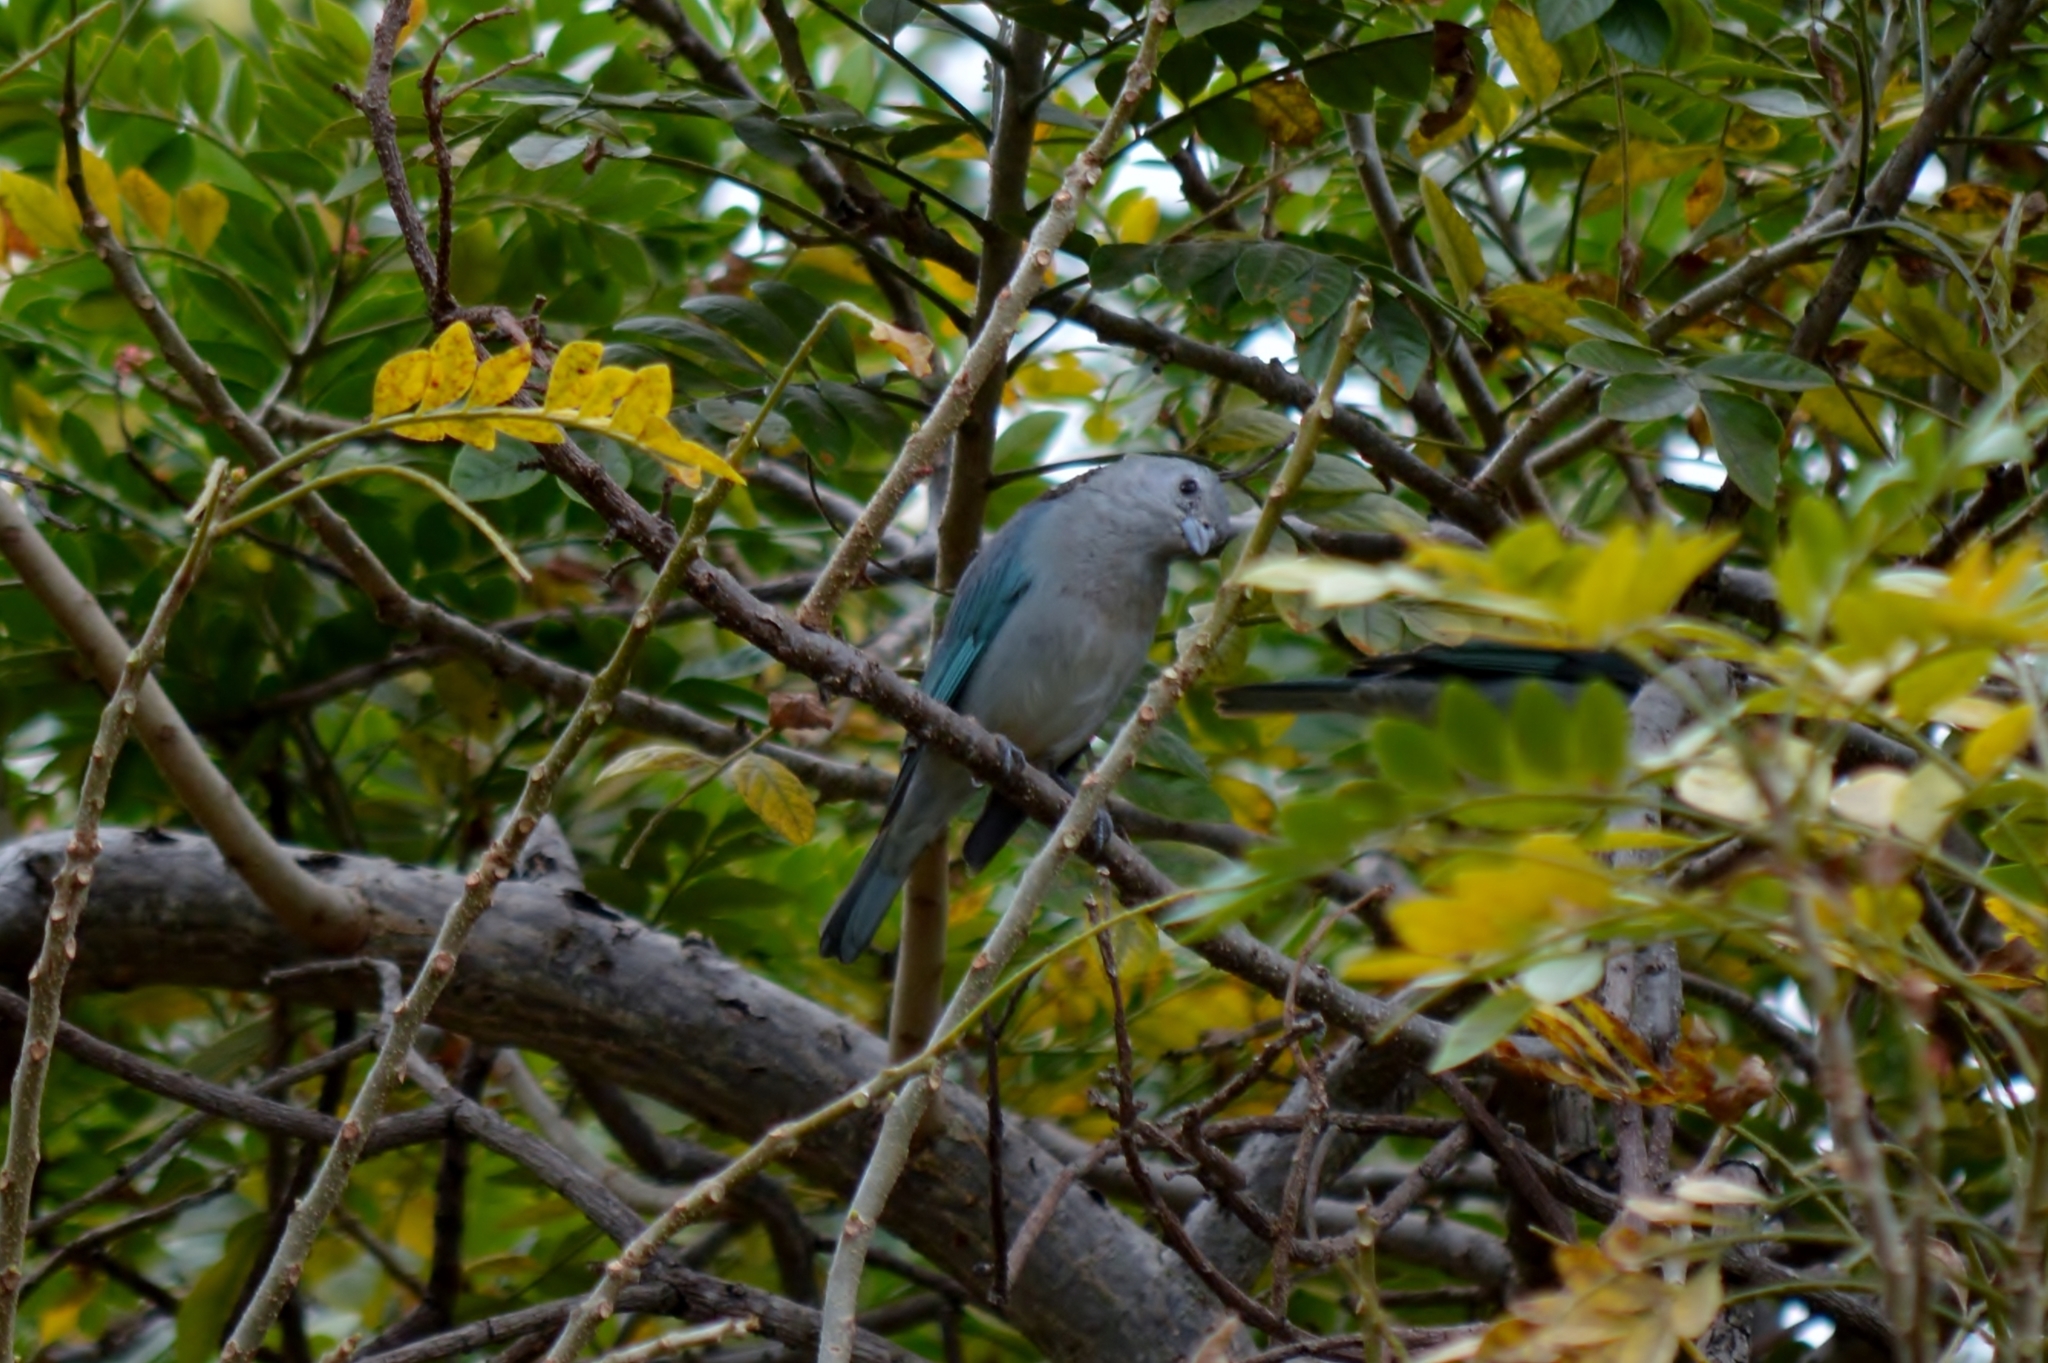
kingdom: Animalia
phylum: Chordata
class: Aves
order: Passeriformes
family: Thraupidae
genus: Thraupis
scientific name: Thraupis sayaca
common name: Sayaca tanager
